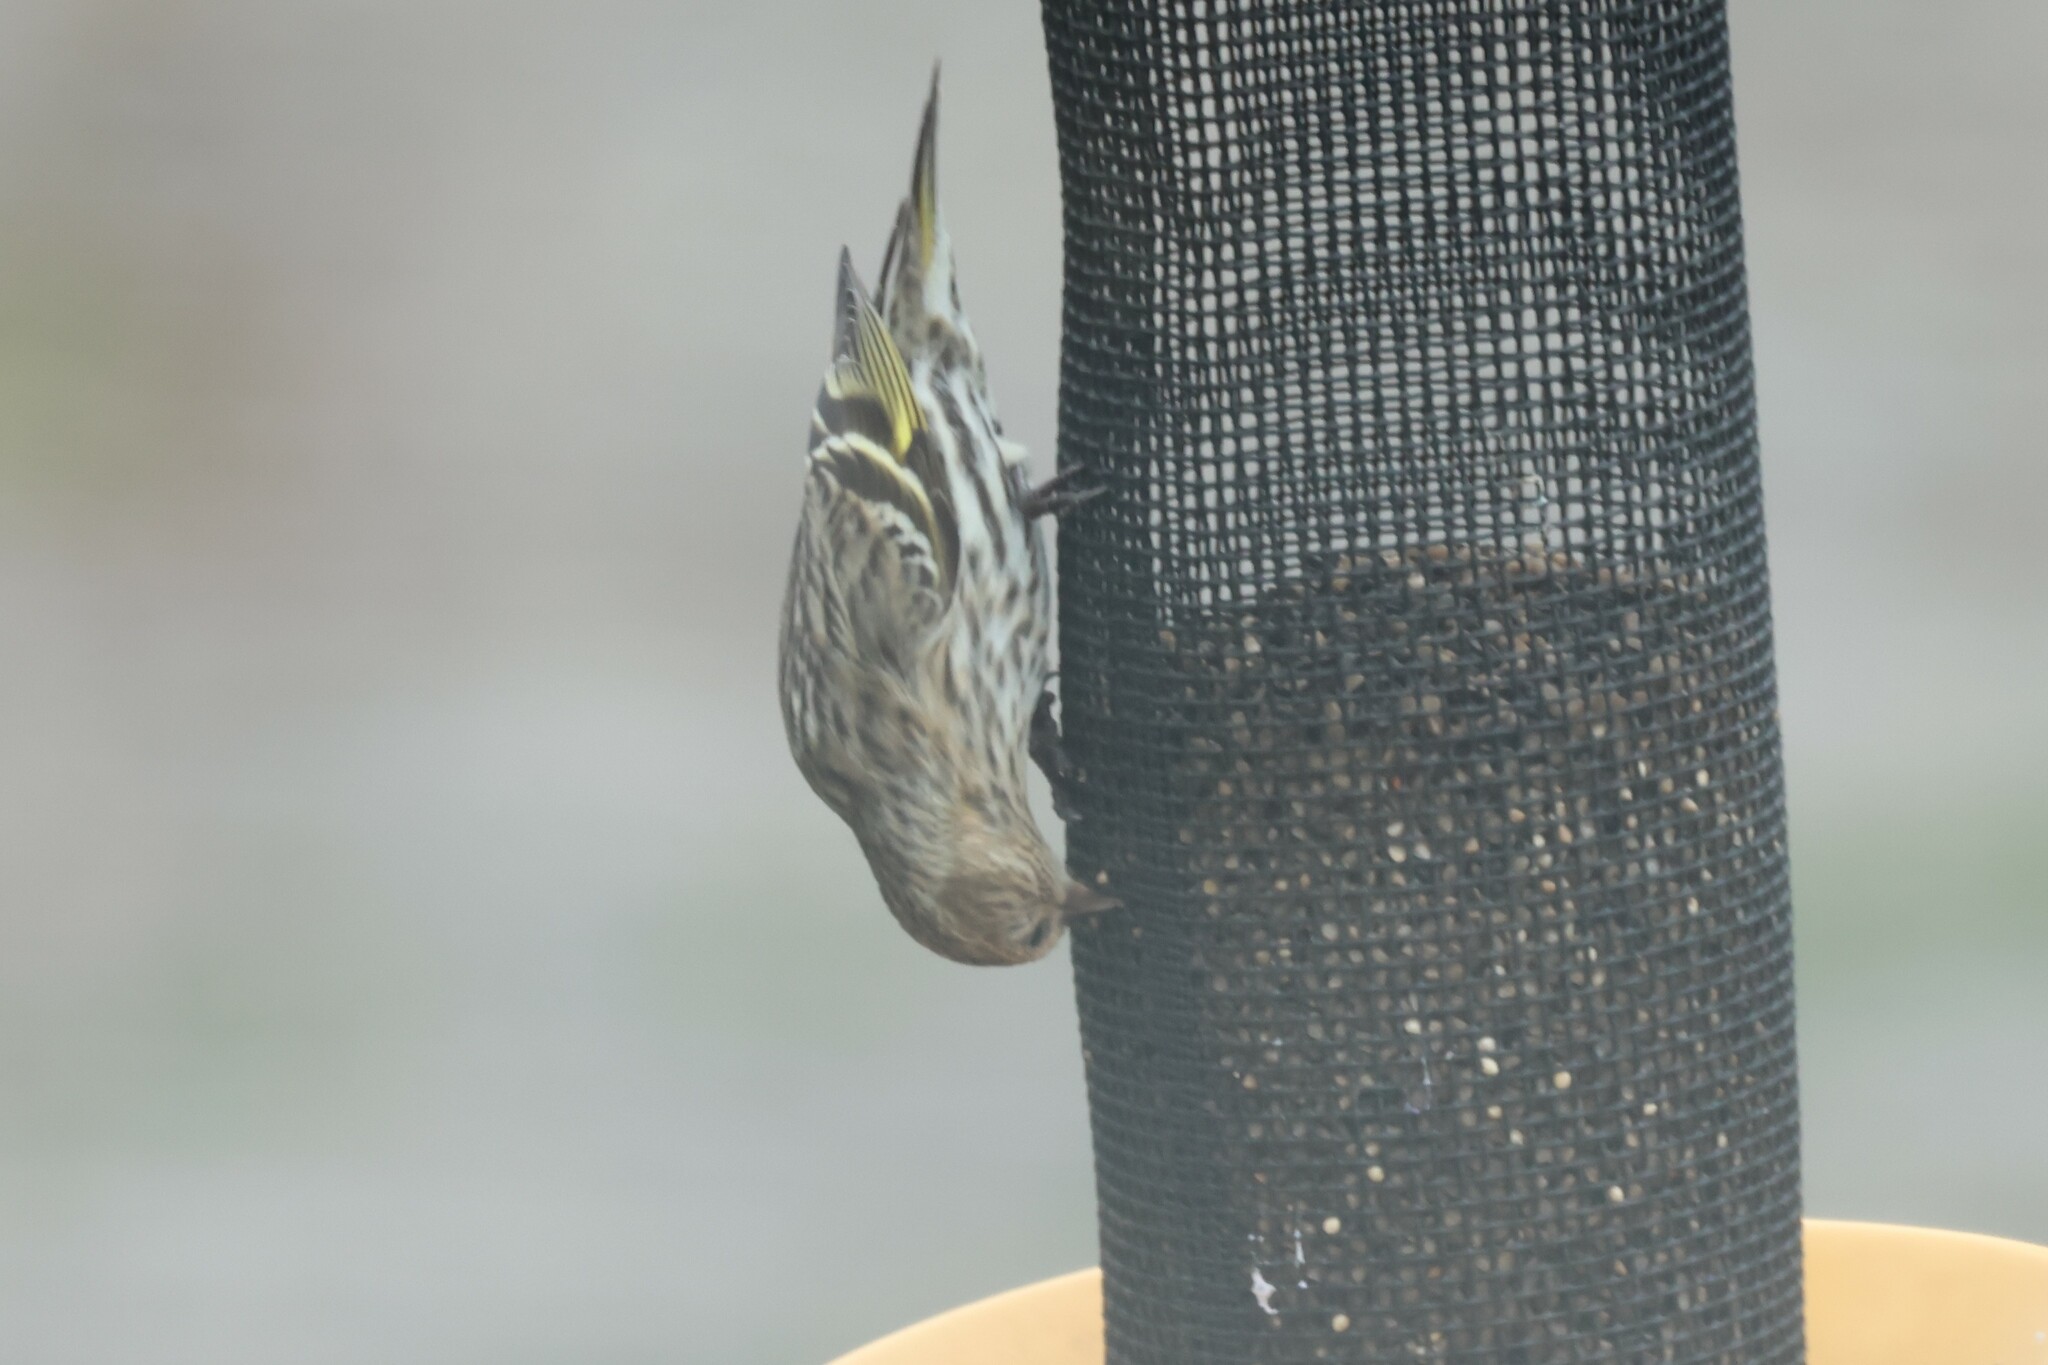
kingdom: Animalia
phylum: Chordata
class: Aves
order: Passeriformes
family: Fringillidae
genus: Spinus
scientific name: Spinus pinus
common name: Pine siskin
